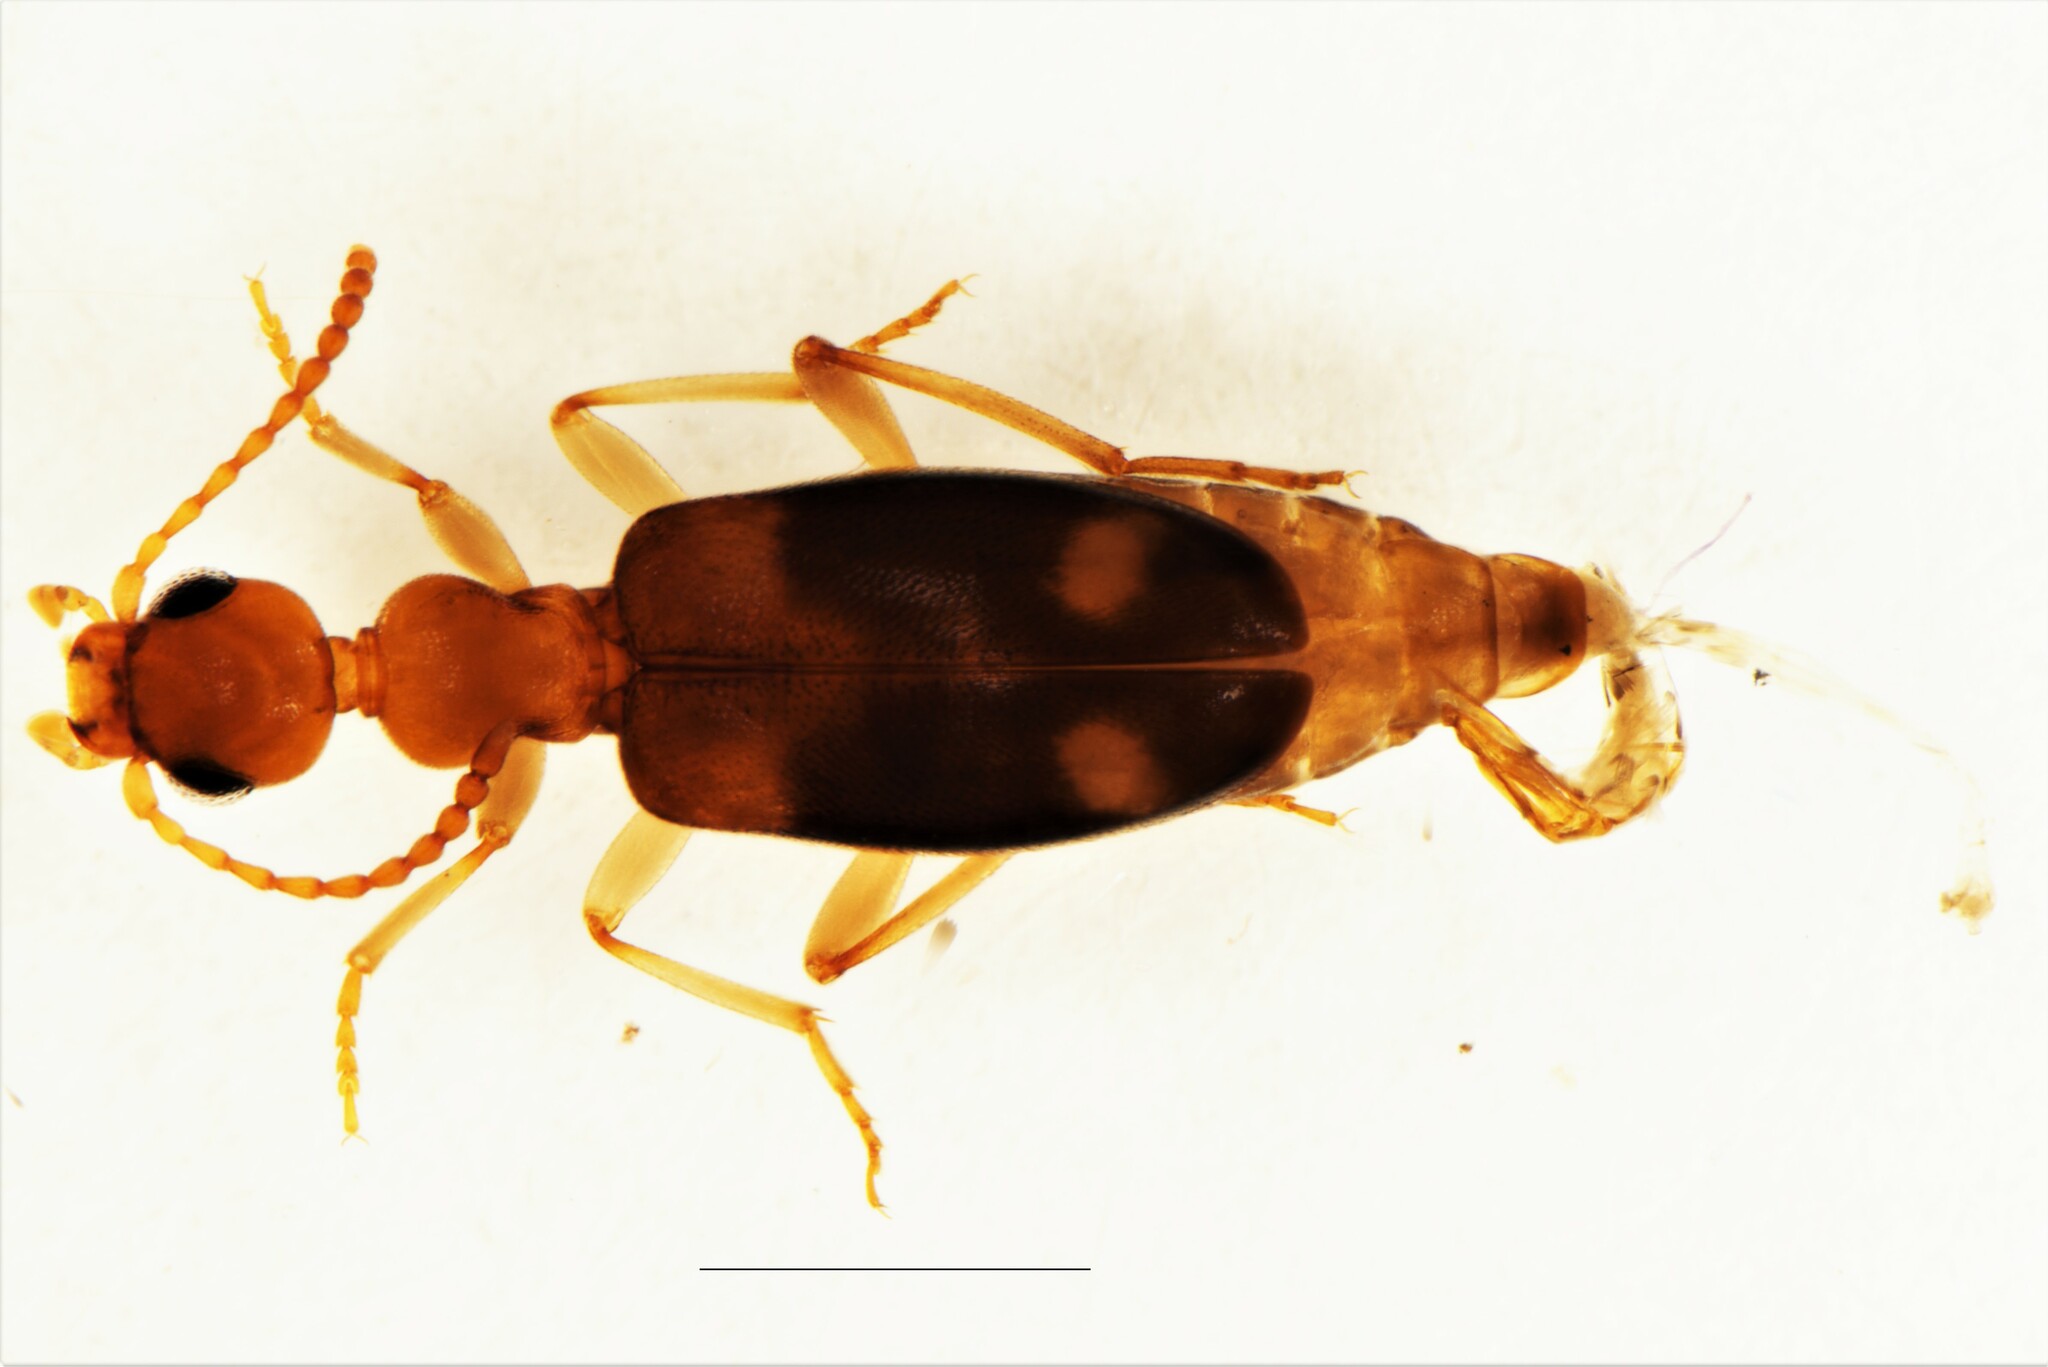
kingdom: Animalia
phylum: Arthropoda
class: Insecta
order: Coleoptera
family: Anthicidae
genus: Stricticollis
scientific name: Stricticollis tobias
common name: Two-dotted ant-like flower beetle
